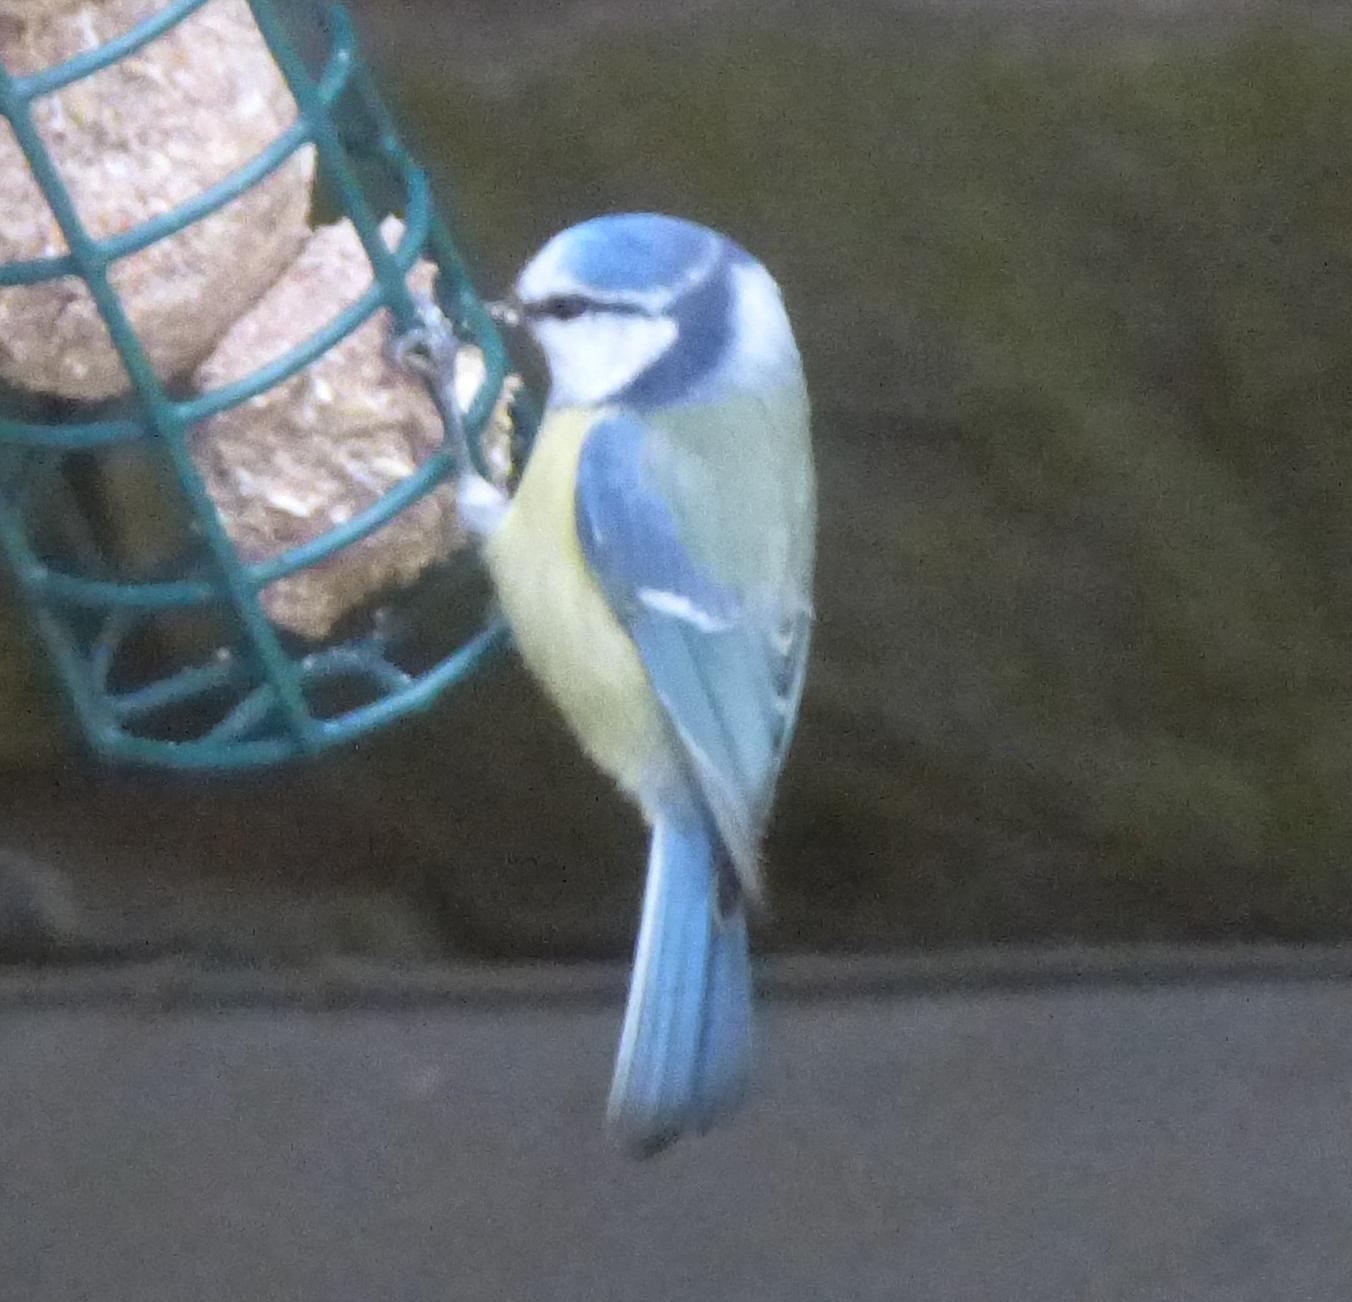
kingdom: Animalia
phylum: Chordata
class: Aves
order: Passeriformes
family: Paridae
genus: Cyanistes
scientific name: Cyanistes caeruleus
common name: Eurasian blue tit
